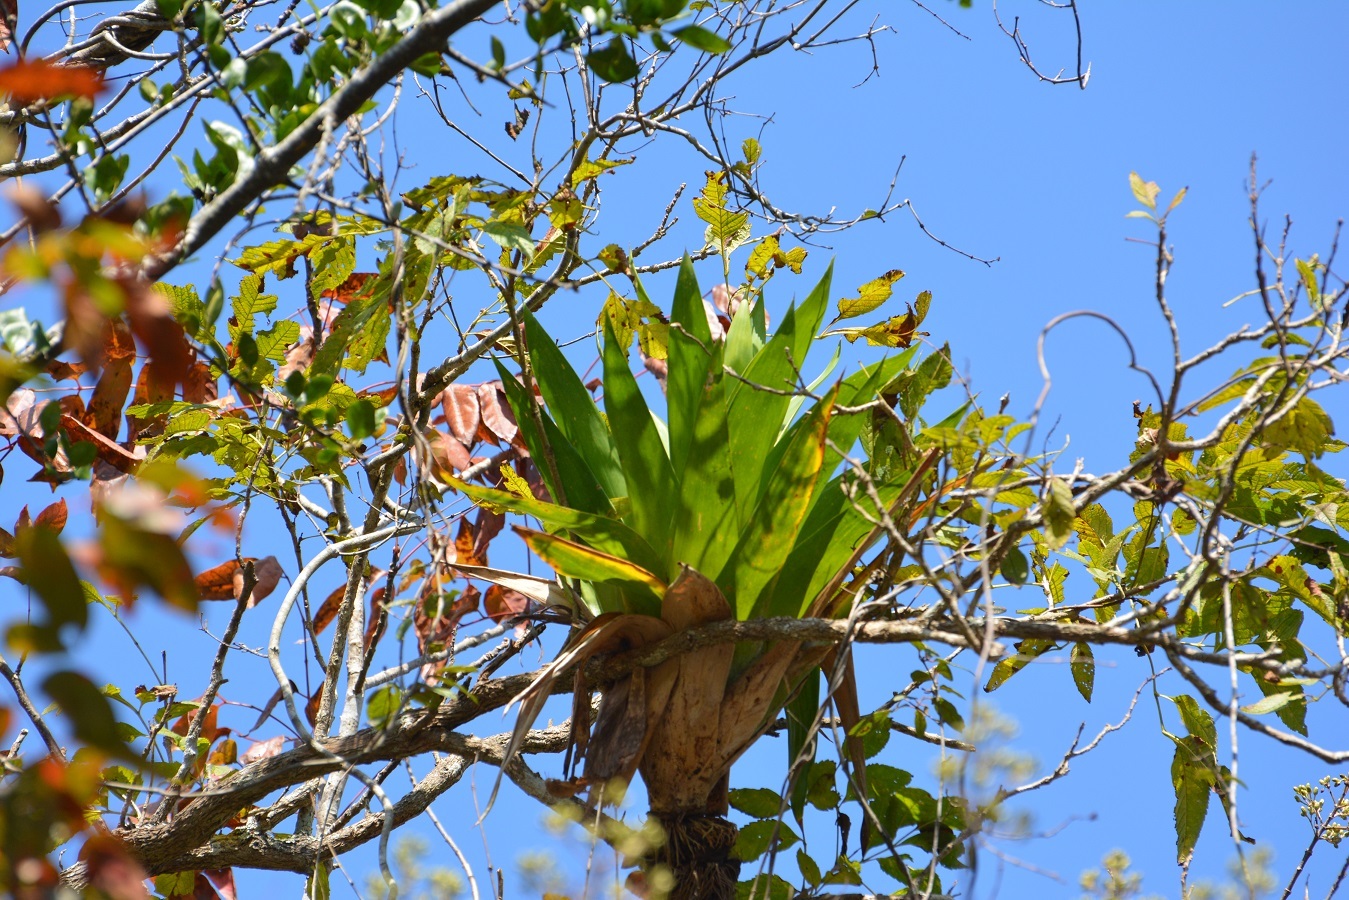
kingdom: Plantae
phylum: Tracheophyta
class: Liliopsida
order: Poales
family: Bromeliaceae
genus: Catopsis
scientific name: Catopsis occulta
